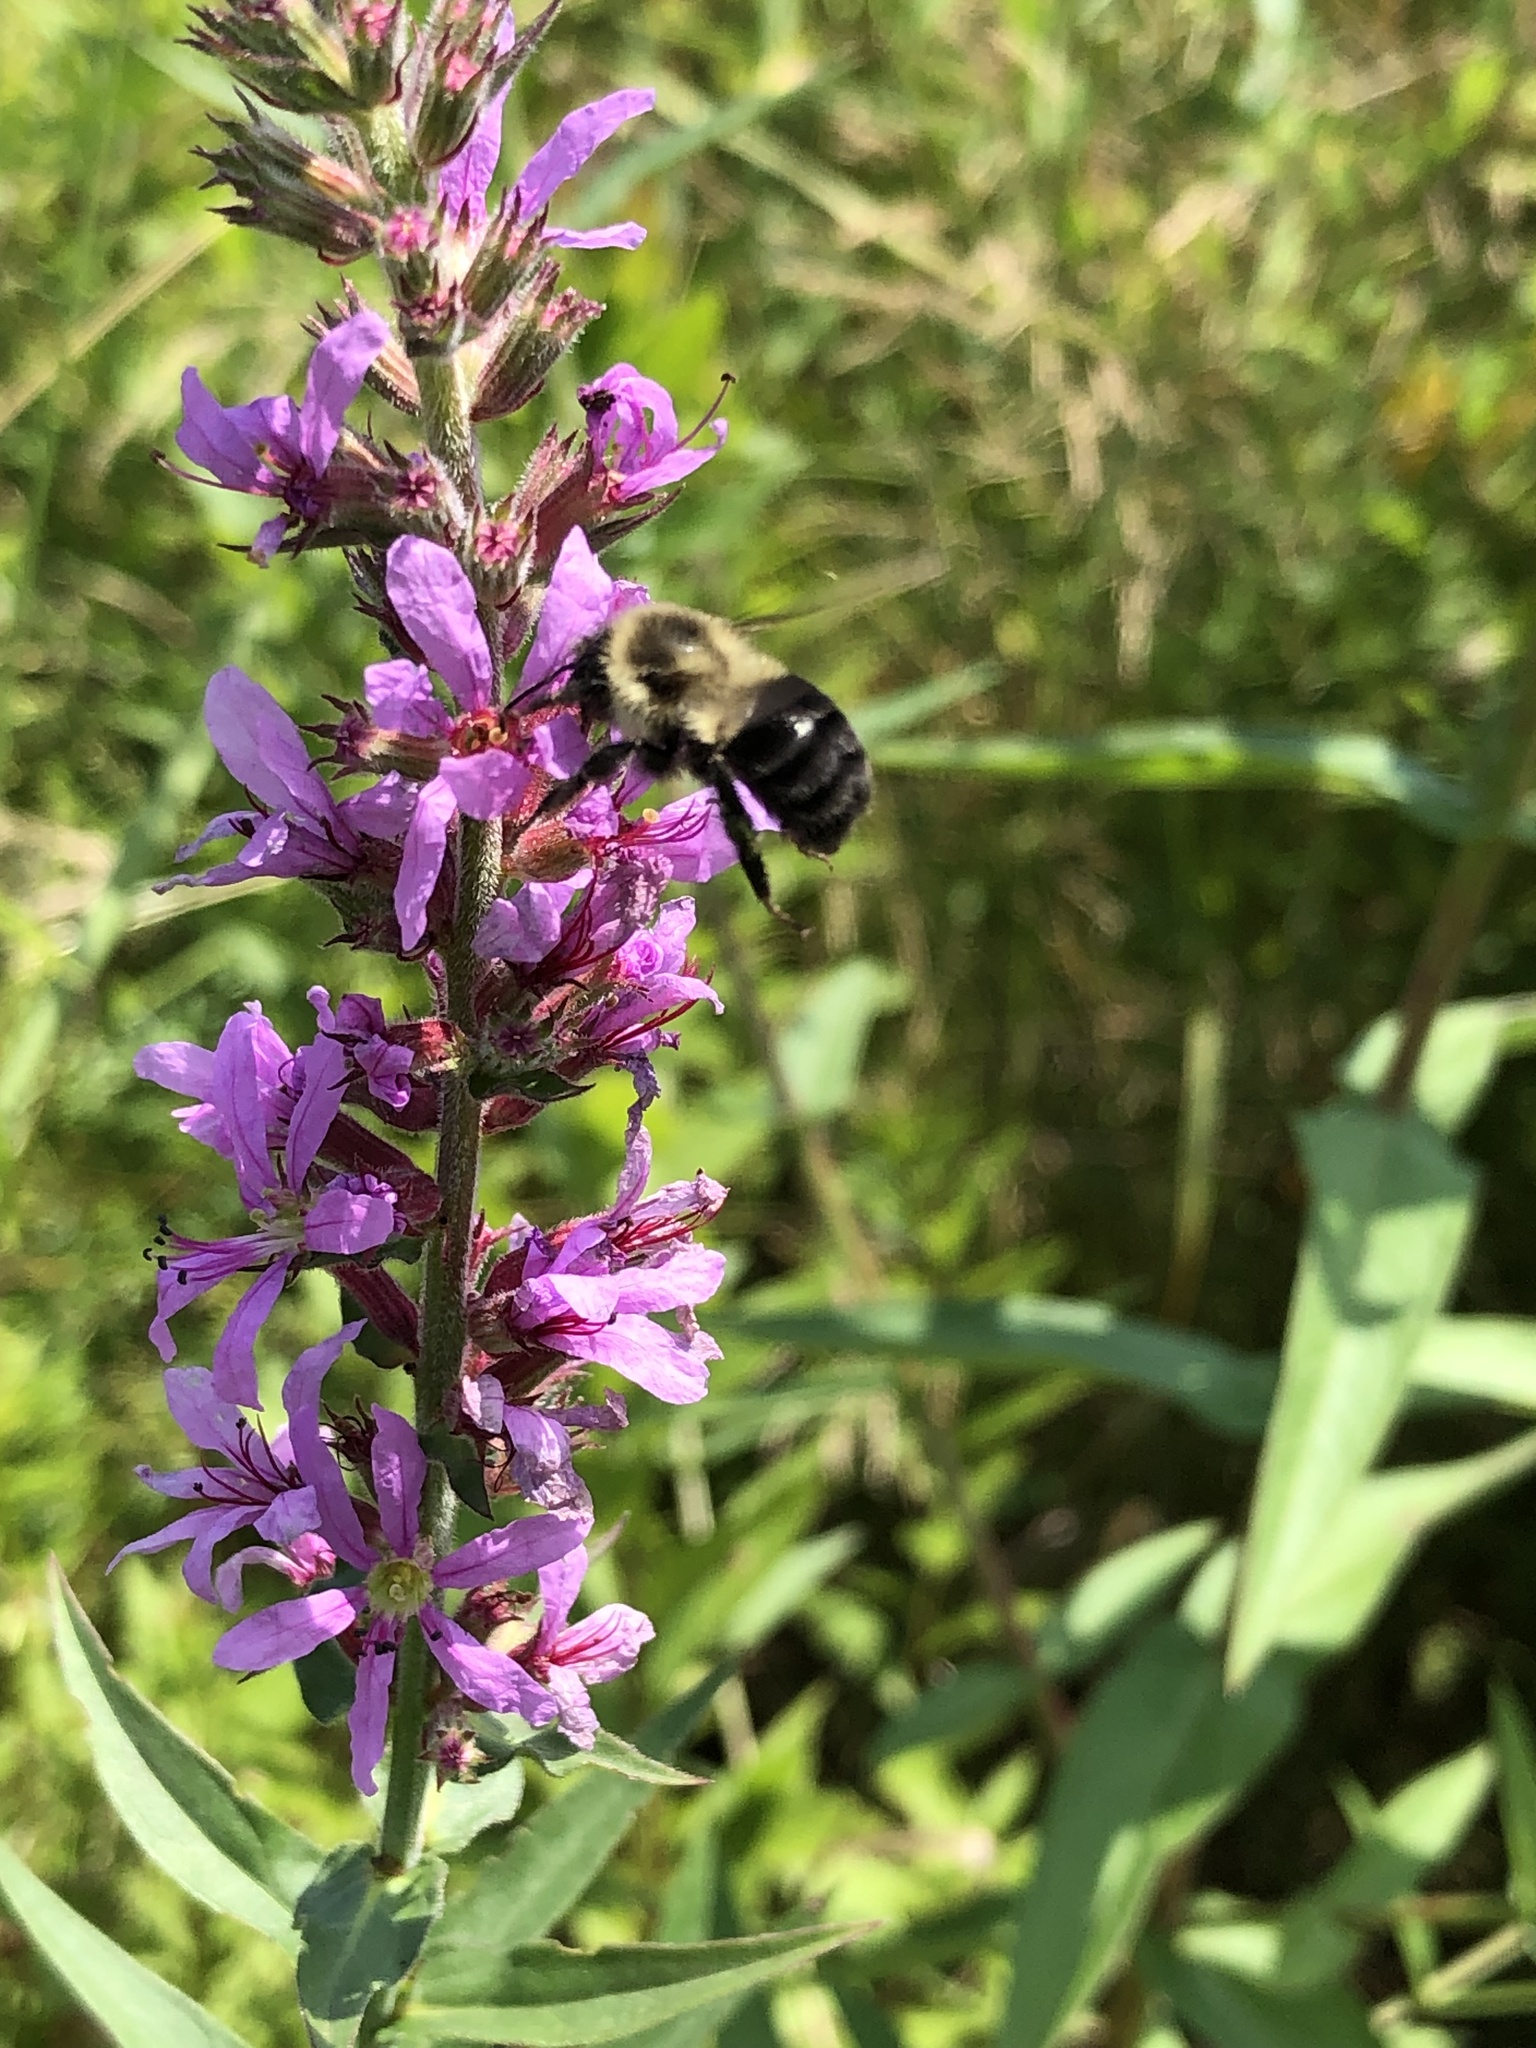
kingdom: Animalia
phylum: Arthropoda
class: Insecta
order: Hymenoptera
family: Apidae
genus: Bombus
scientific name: Bombus impatiens
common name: Common eastern bumble bee
